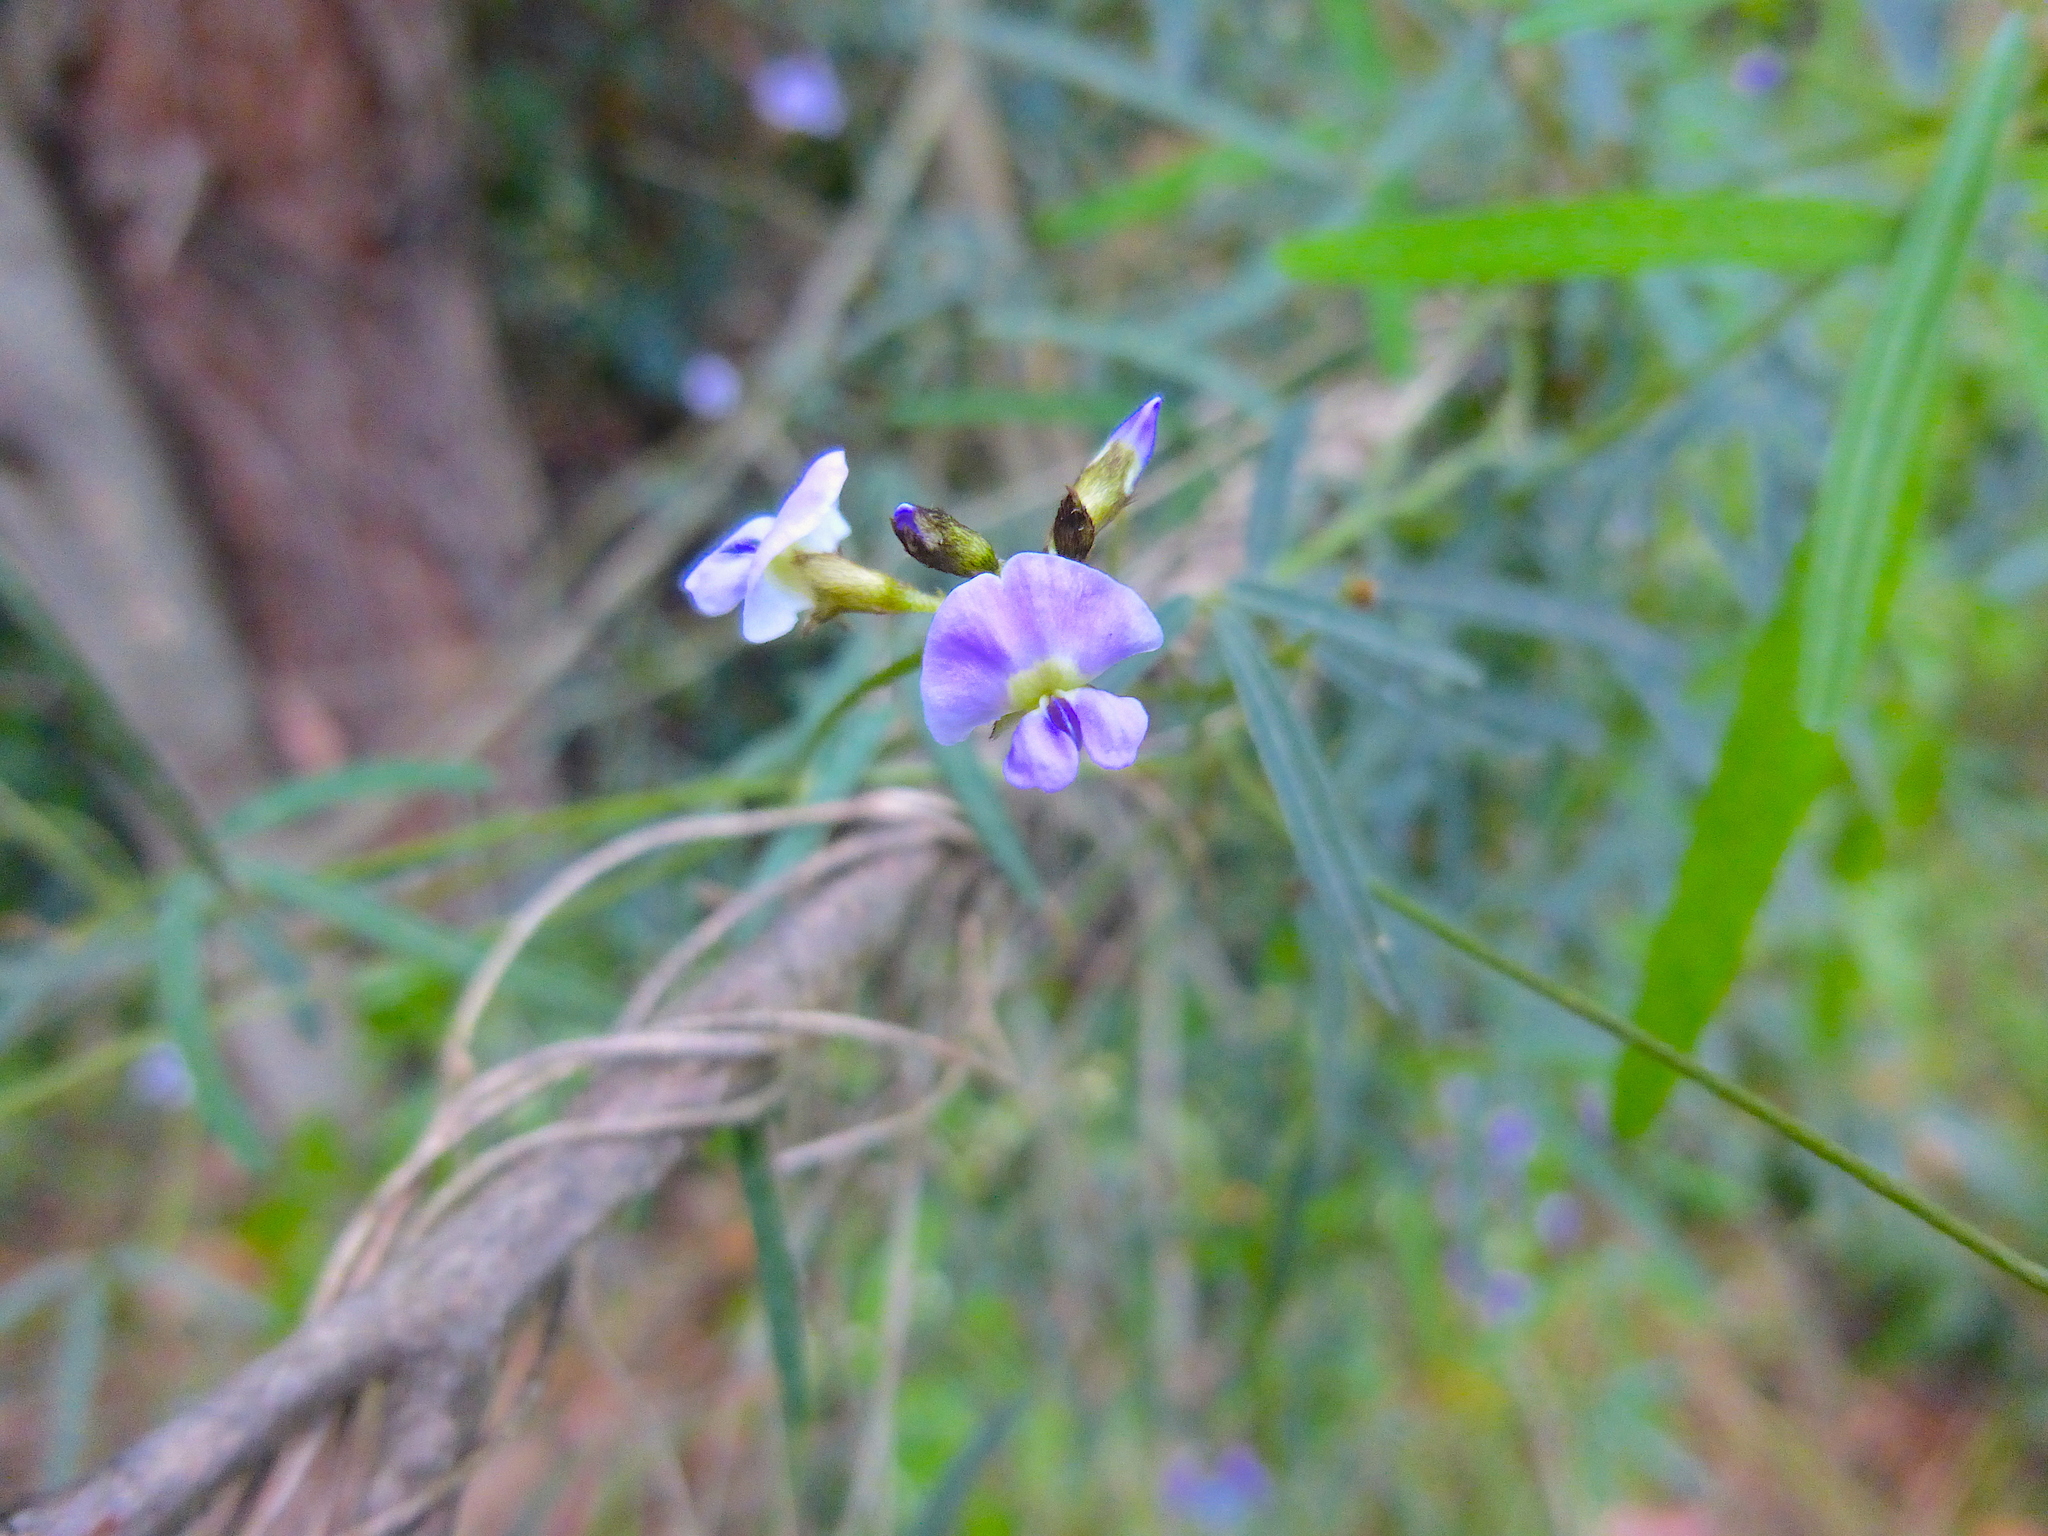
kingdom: Plantae
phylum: Tracheophyta
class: Magnoliopsida
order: Fabales
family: Fabaceae
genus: Glycine
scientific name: Glycine clandestina
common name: Twining glycine
